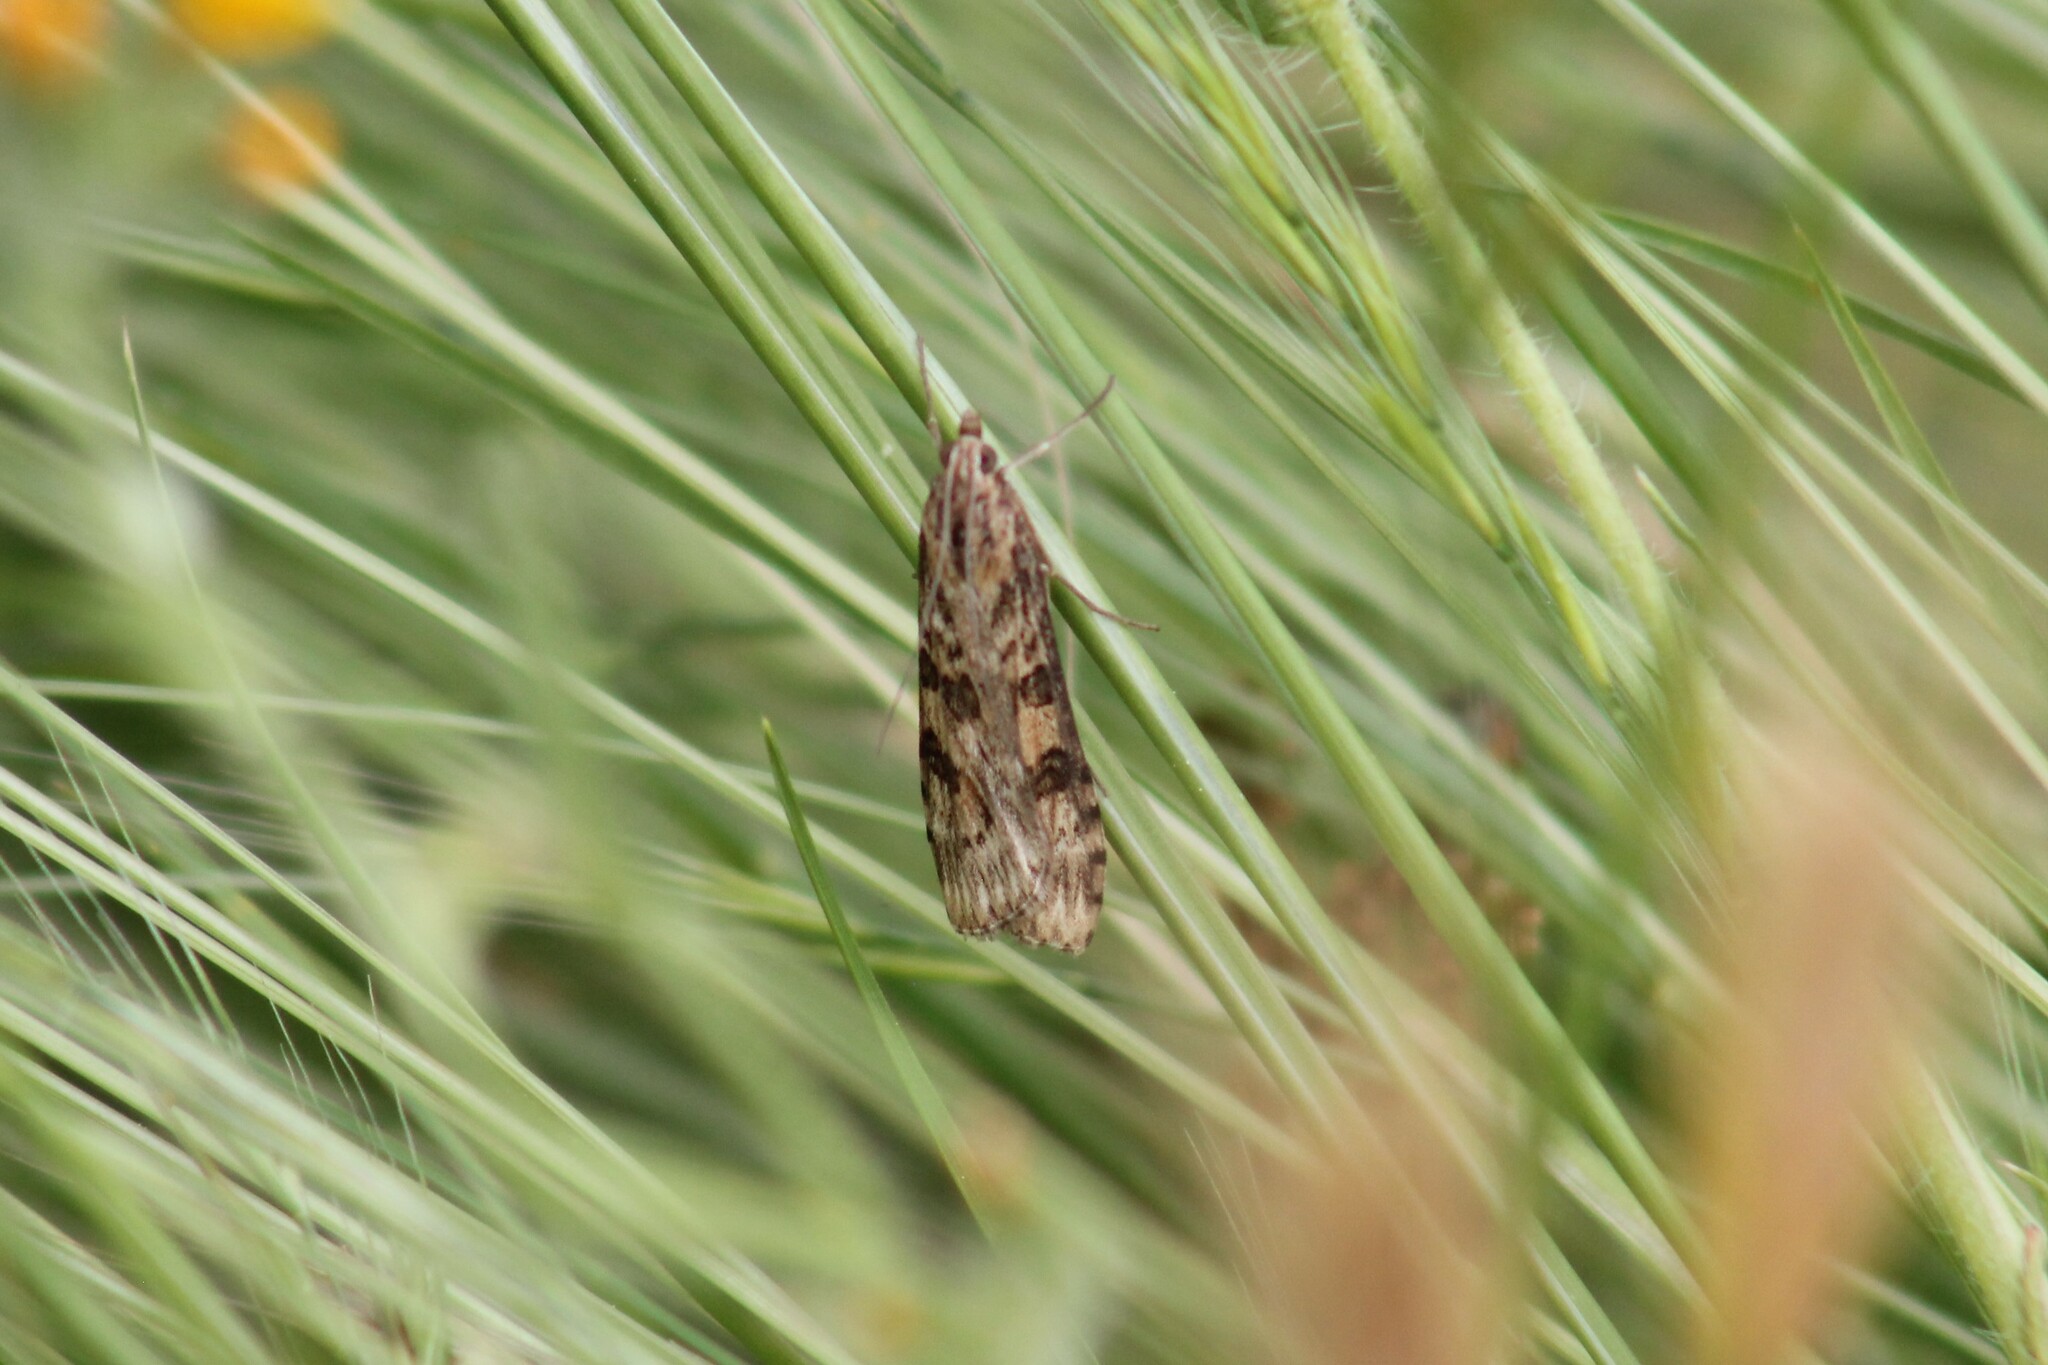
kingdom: Animalia
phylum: Arthropoda
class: Insecta
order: Lepidoptera
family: Crambidae
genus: Nomophila
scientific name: Nomophila nearctica
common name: American rush veneer
